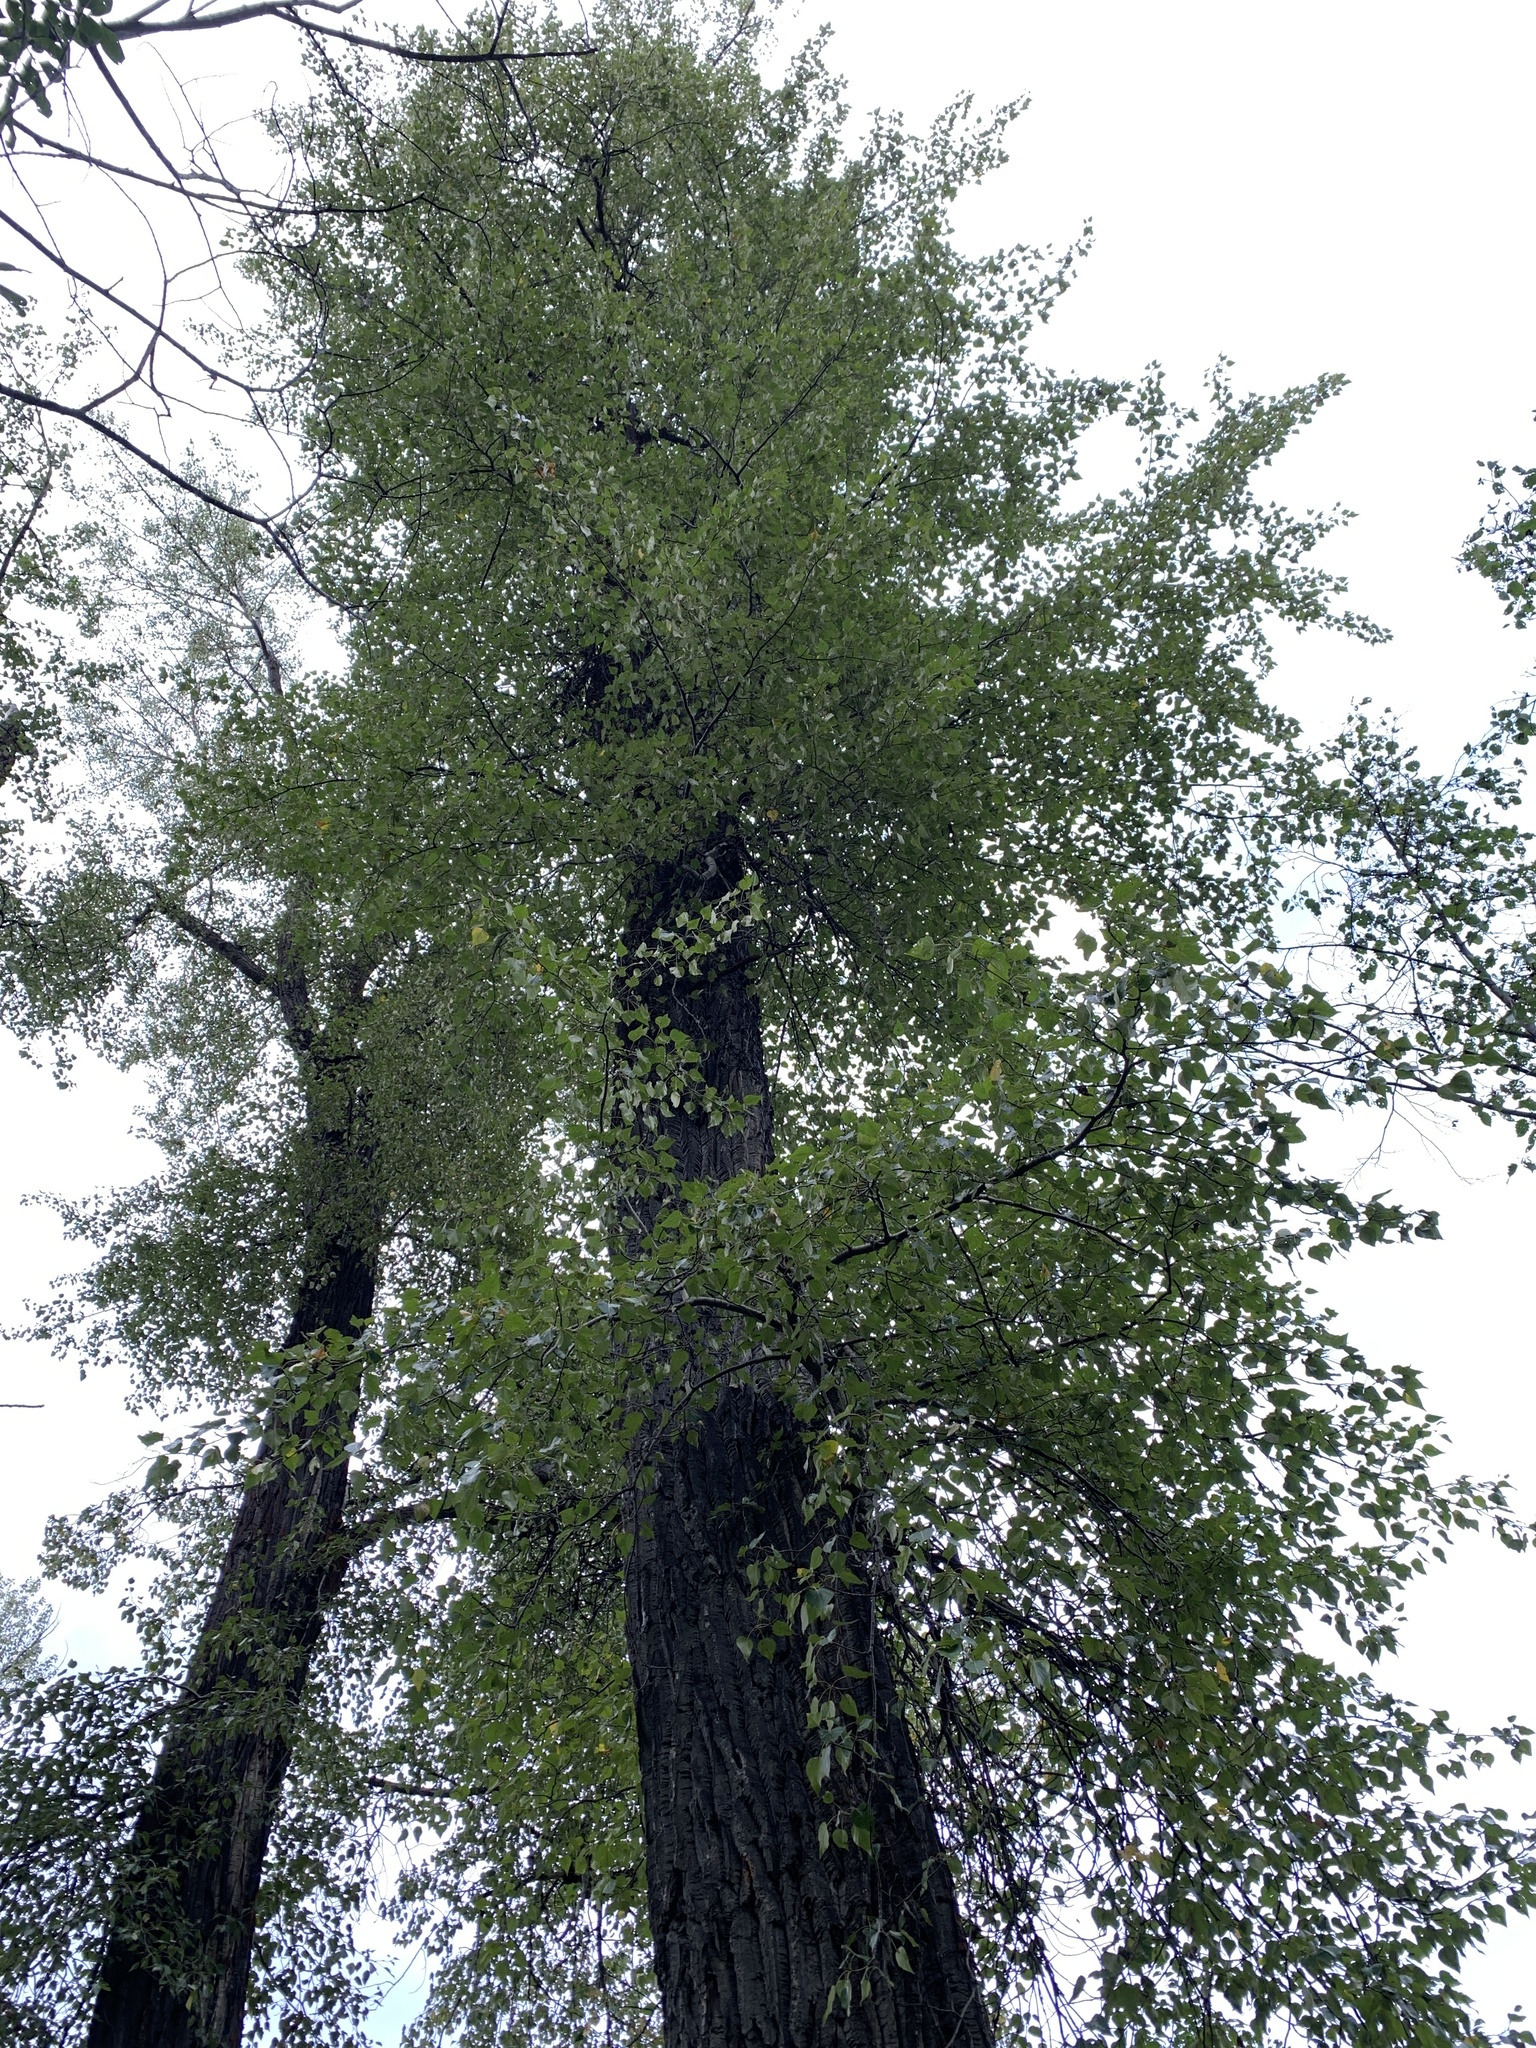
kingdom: Plantae
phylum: Tracheophyta
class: Magnoliopsida
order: Malpighiales
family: Salicaceae
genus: Populus
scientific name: Populus trichocarpa
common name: Black cottonwood
